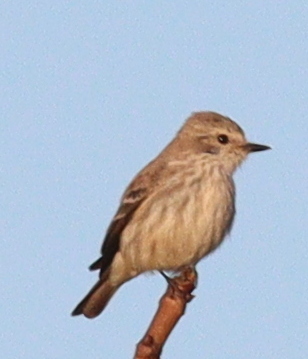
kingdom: Animalia
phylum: Chordata
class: Aves
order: Passeriformes
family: Tyrannidae
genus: Pyrocephalus
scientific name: Pyrocephalus rubinus
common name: Vermilion flycatcher
